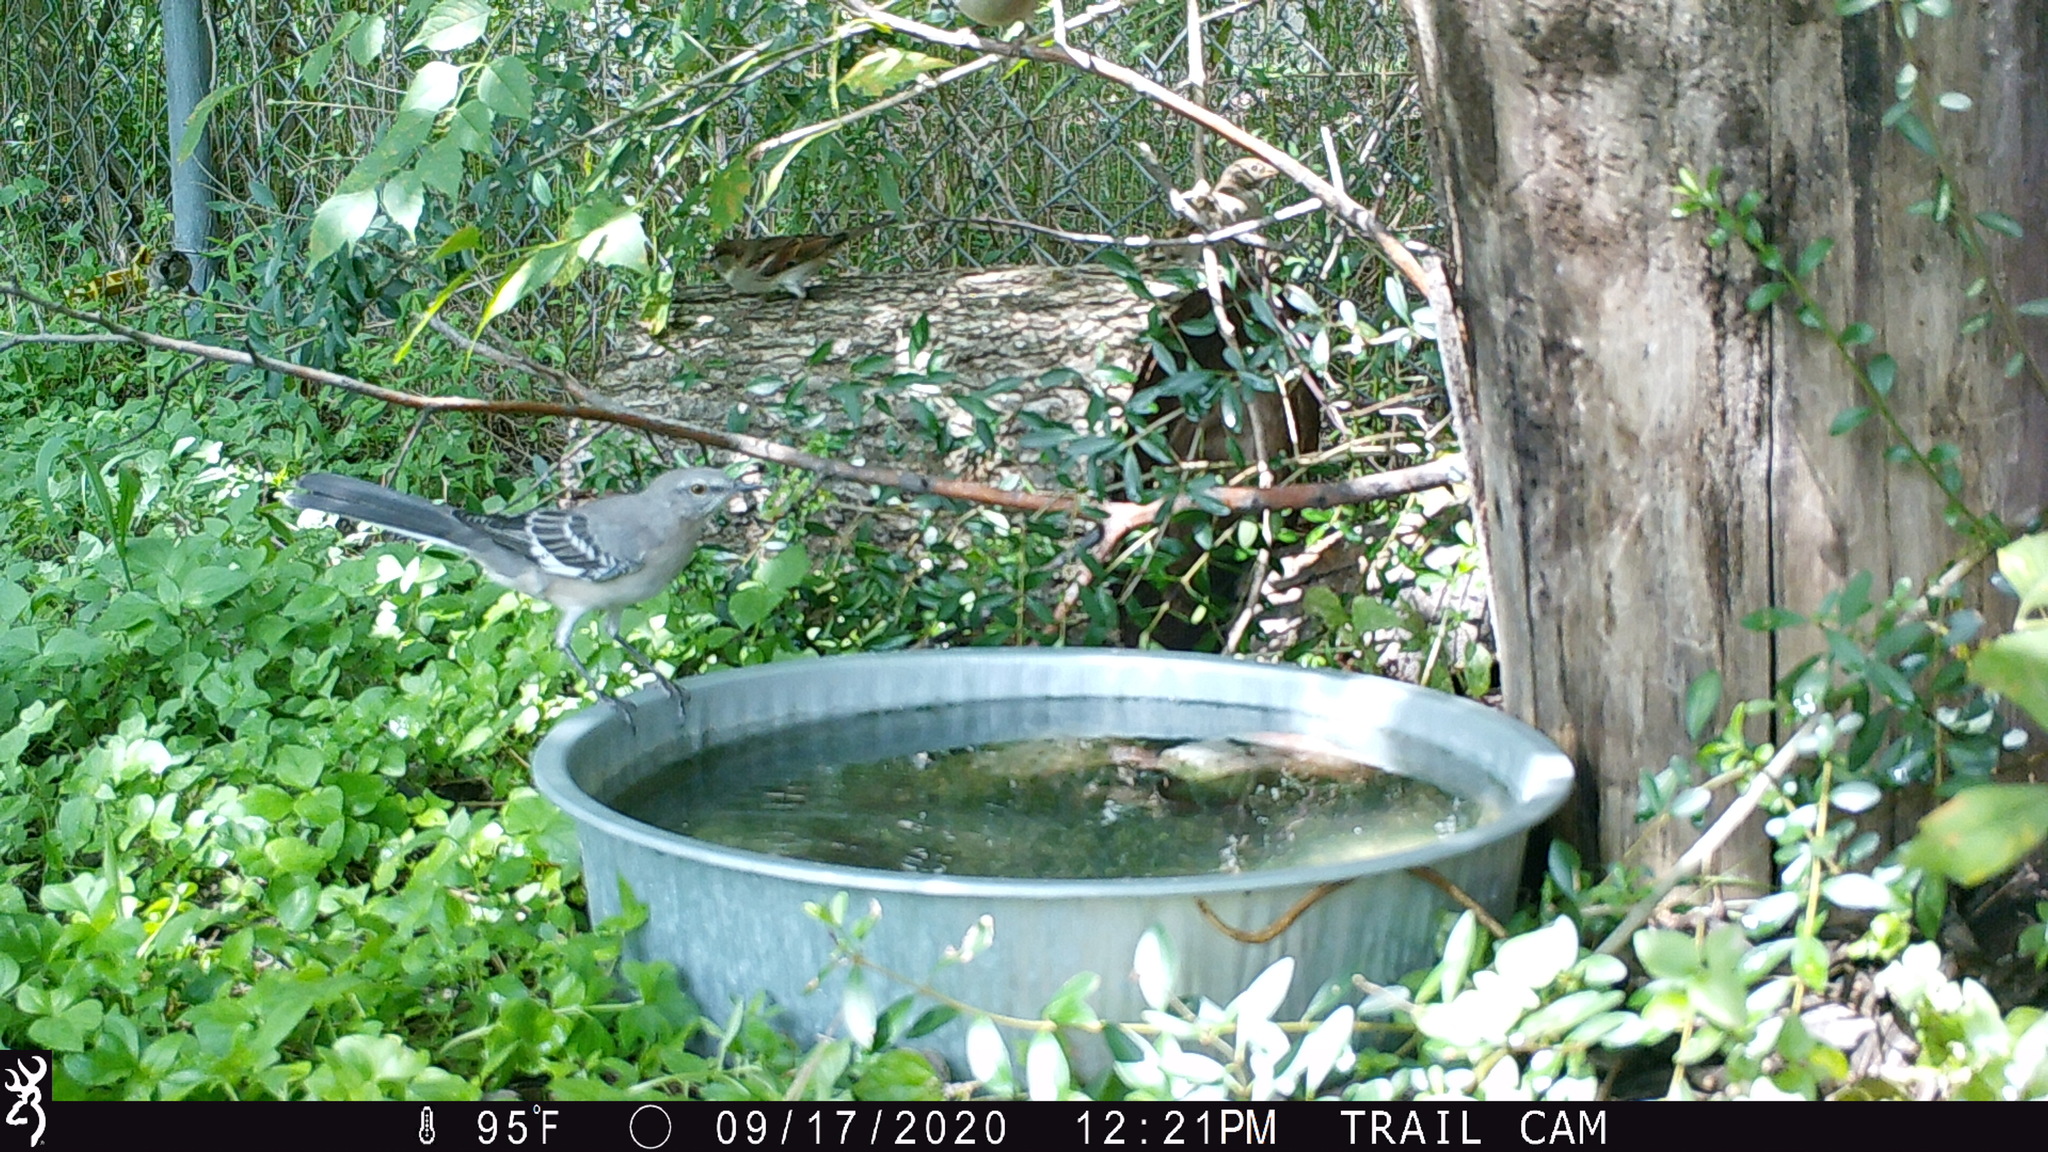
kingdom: Animalia
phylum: Chordata
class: Aves
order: Passeriformes
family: Mimidae
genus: Mimus
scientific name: Mimus polyglottos
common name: Northern mockingbird
